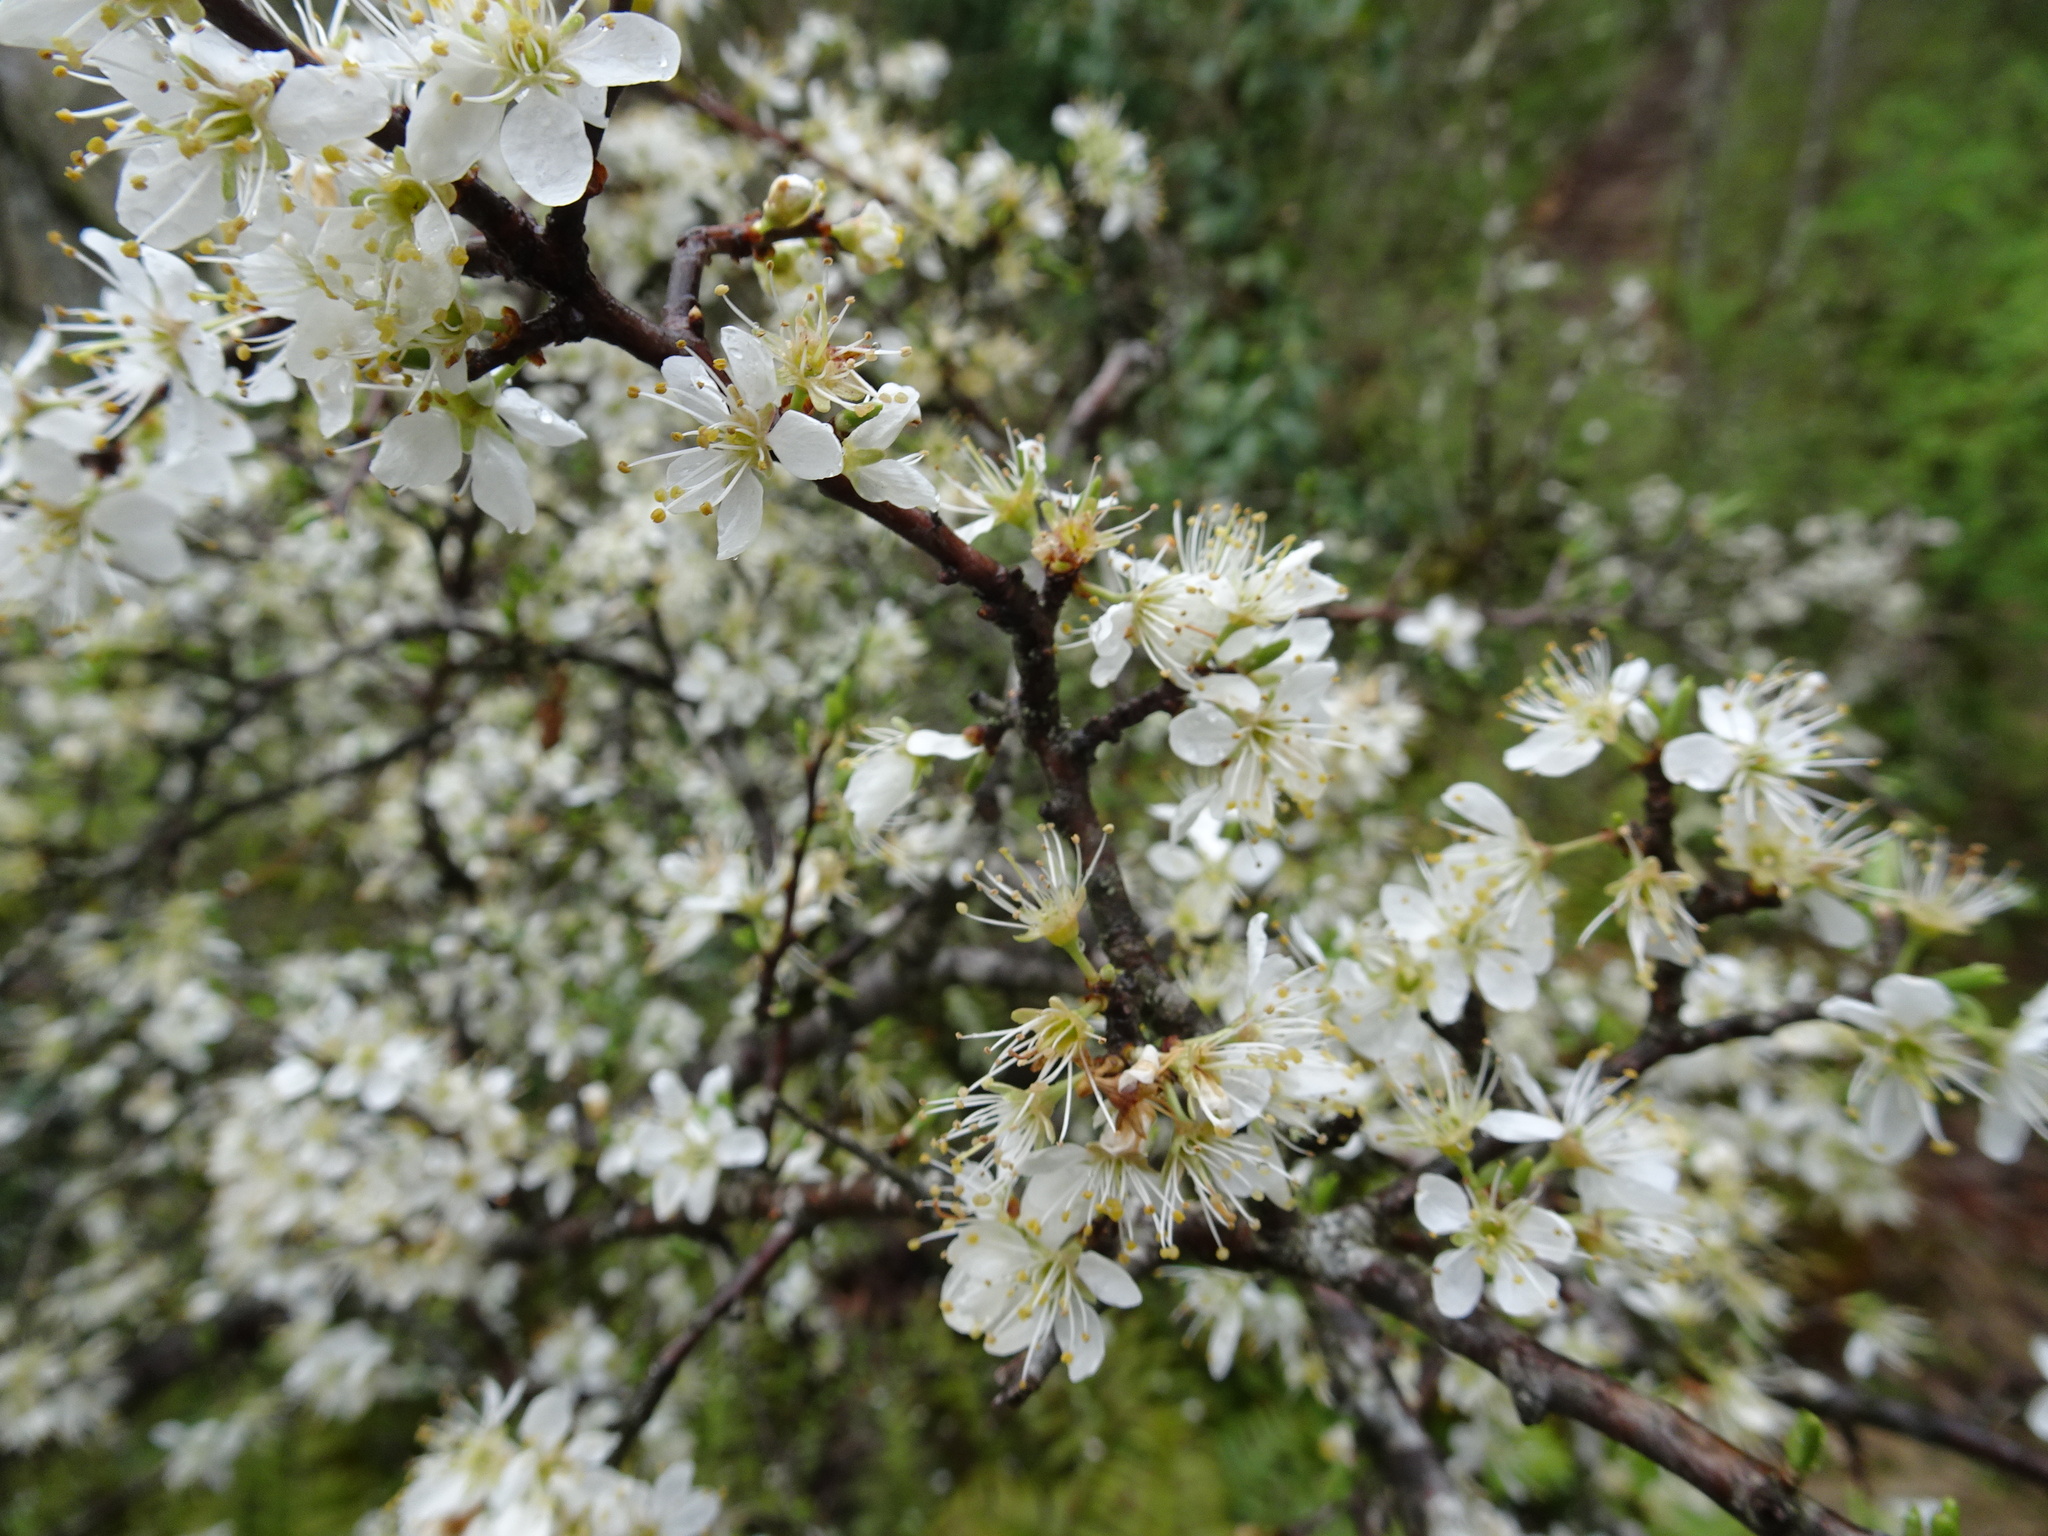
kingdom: Plantae
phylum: Tracheophyta
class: Magnoliopsida
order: Rosales
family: Rosaceae
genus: Prunus
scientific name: Prunus spinosa
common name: Blackthorn
